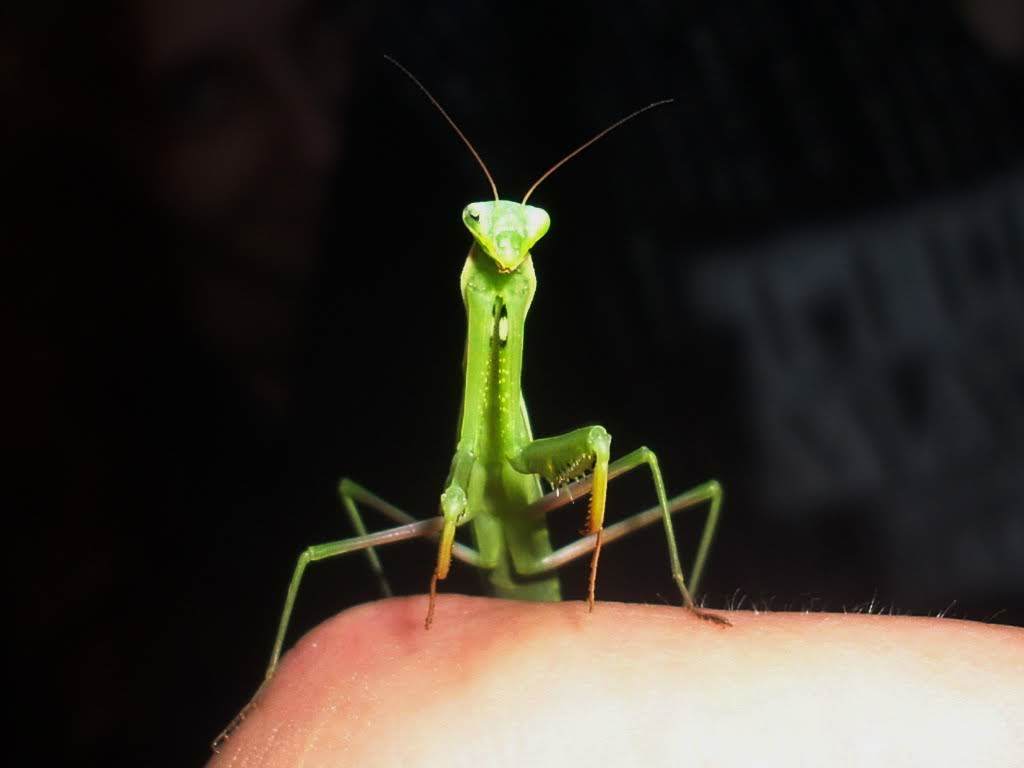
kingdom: Animalia
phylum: Arthropoda
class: Insecta
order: Mantodea
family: Mantidae
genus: Mantis
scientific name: Mantis religiosa
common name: Praying mantis
